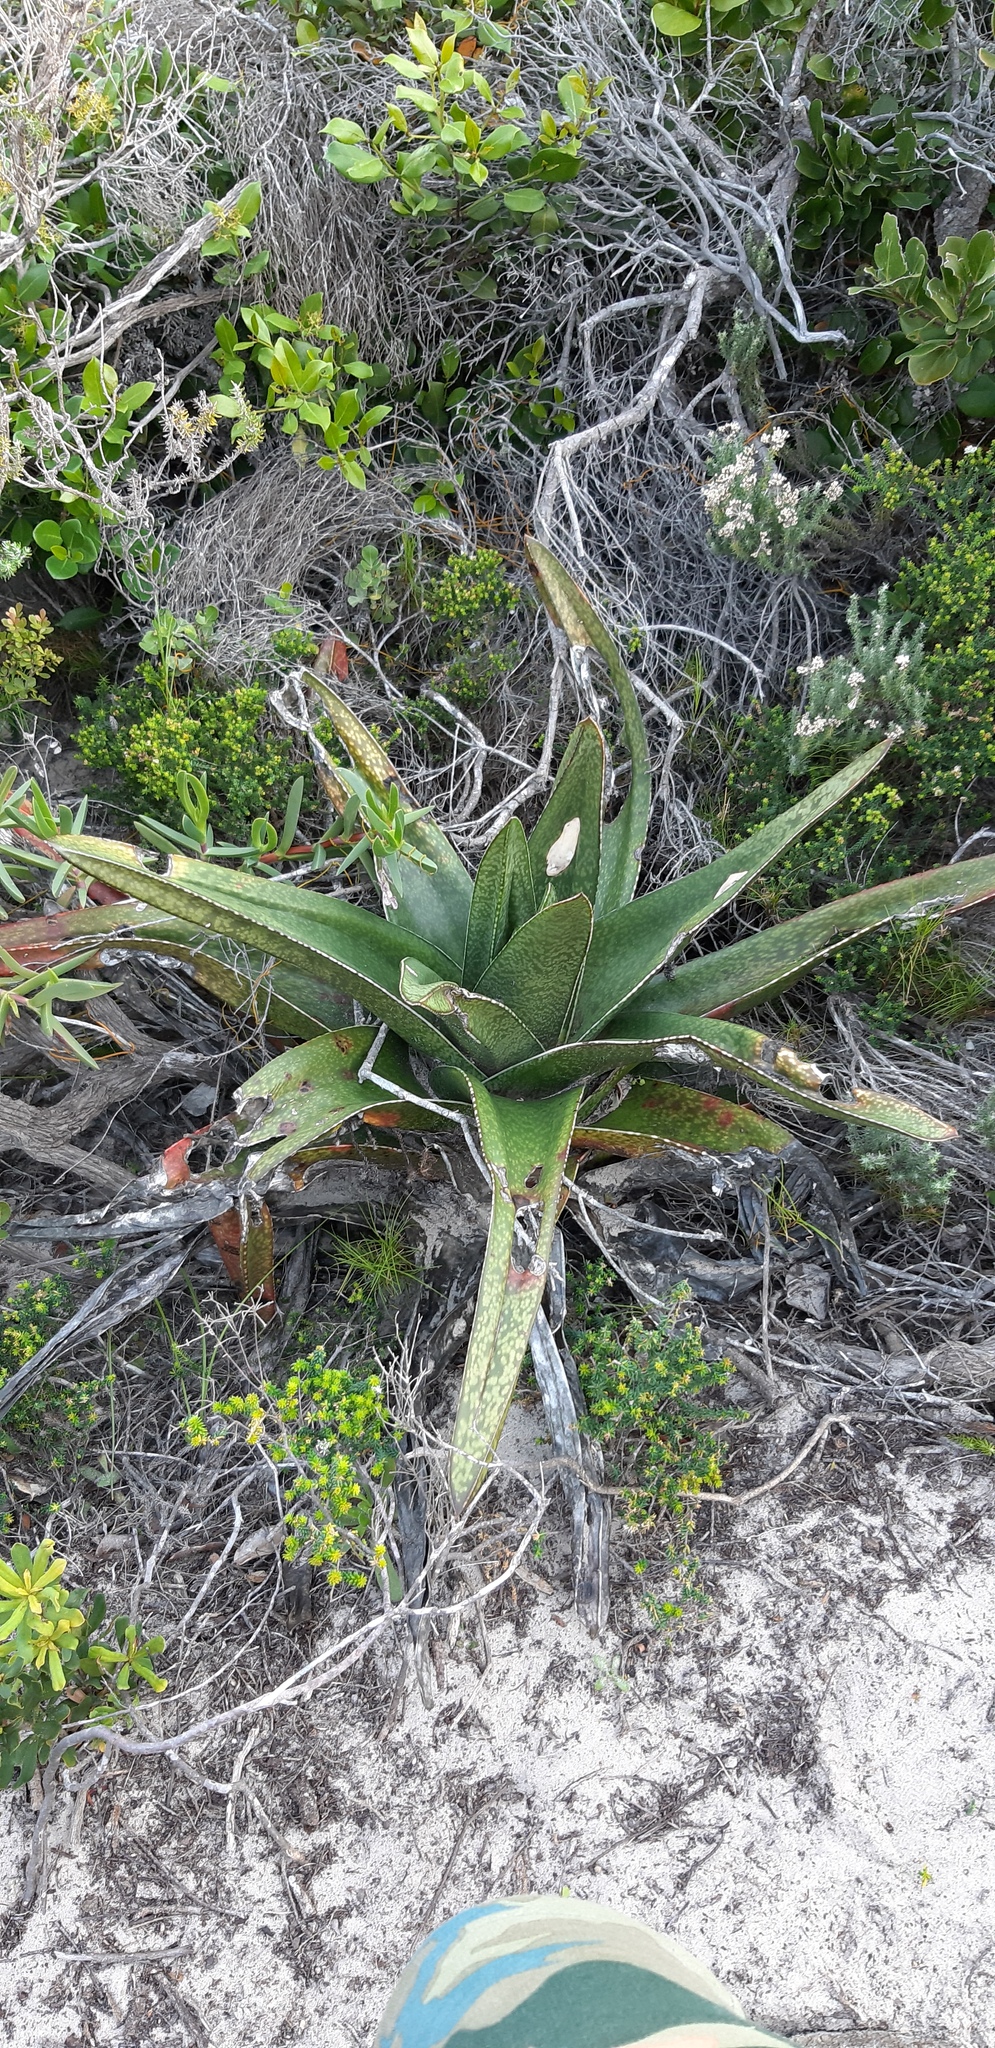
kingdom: Plantae
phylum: Tracheophyta
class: Liliopsida
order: Asparagales
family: Asphodelaceae
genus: Gasteria
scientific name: Gasteria acinacifolia
